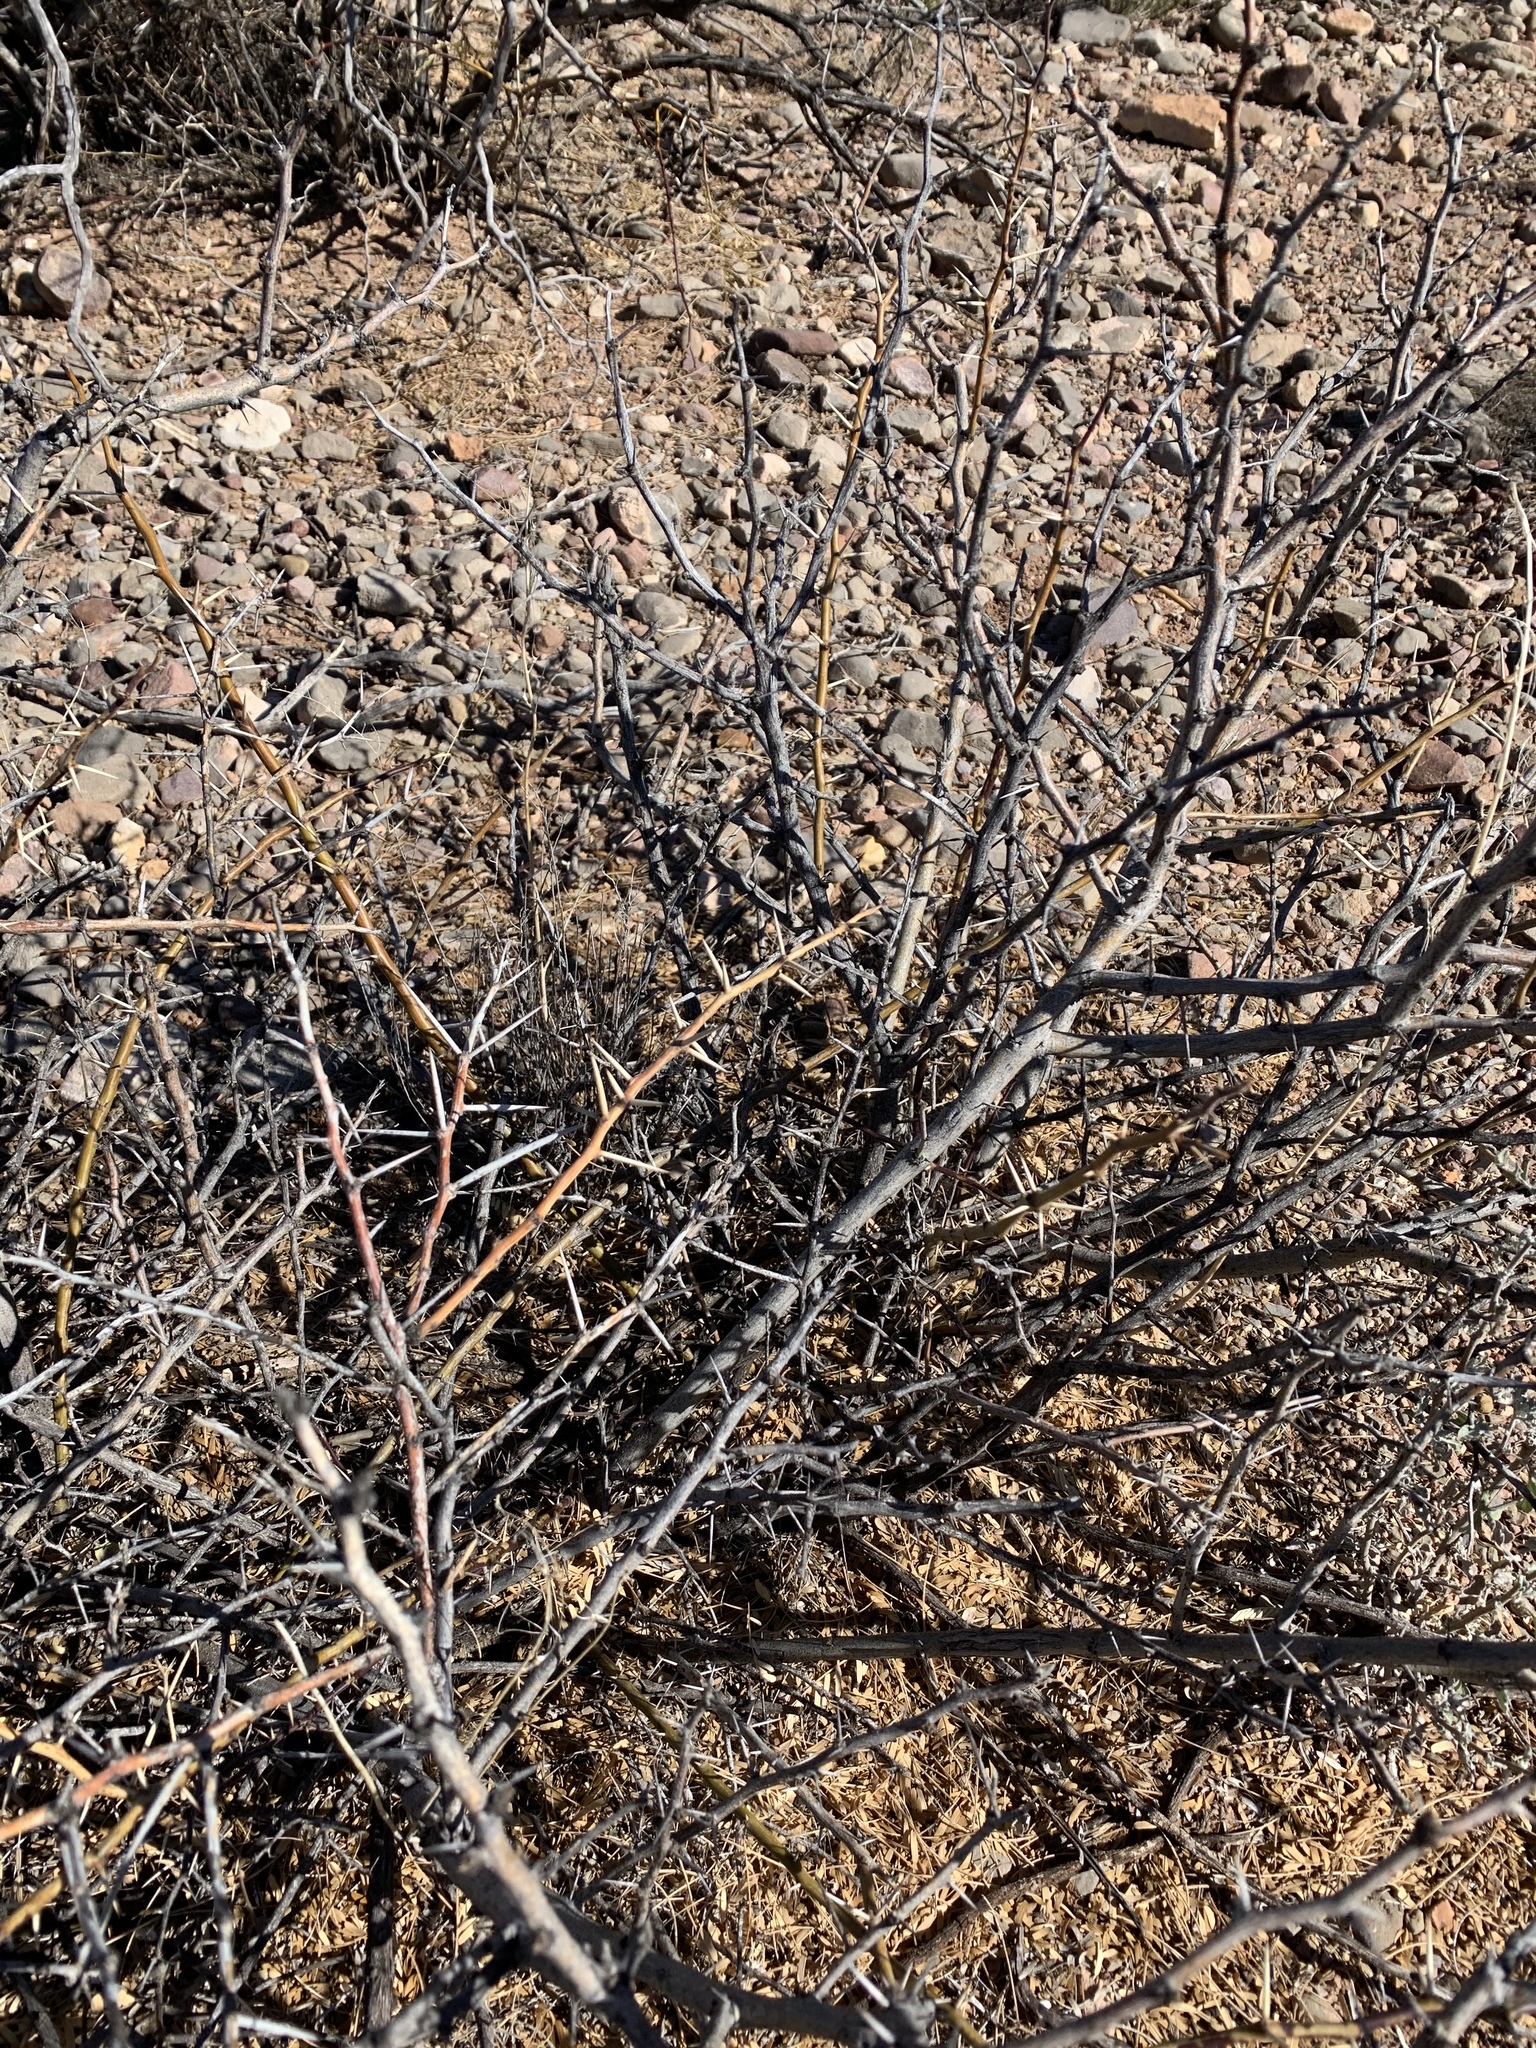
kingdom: Plantae
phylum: Tracheophyta
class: Magnoliopsida
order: Fabales
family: Fabaceae
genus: Vachellia
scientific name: Vachellia constricta
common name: Mescat acacia
